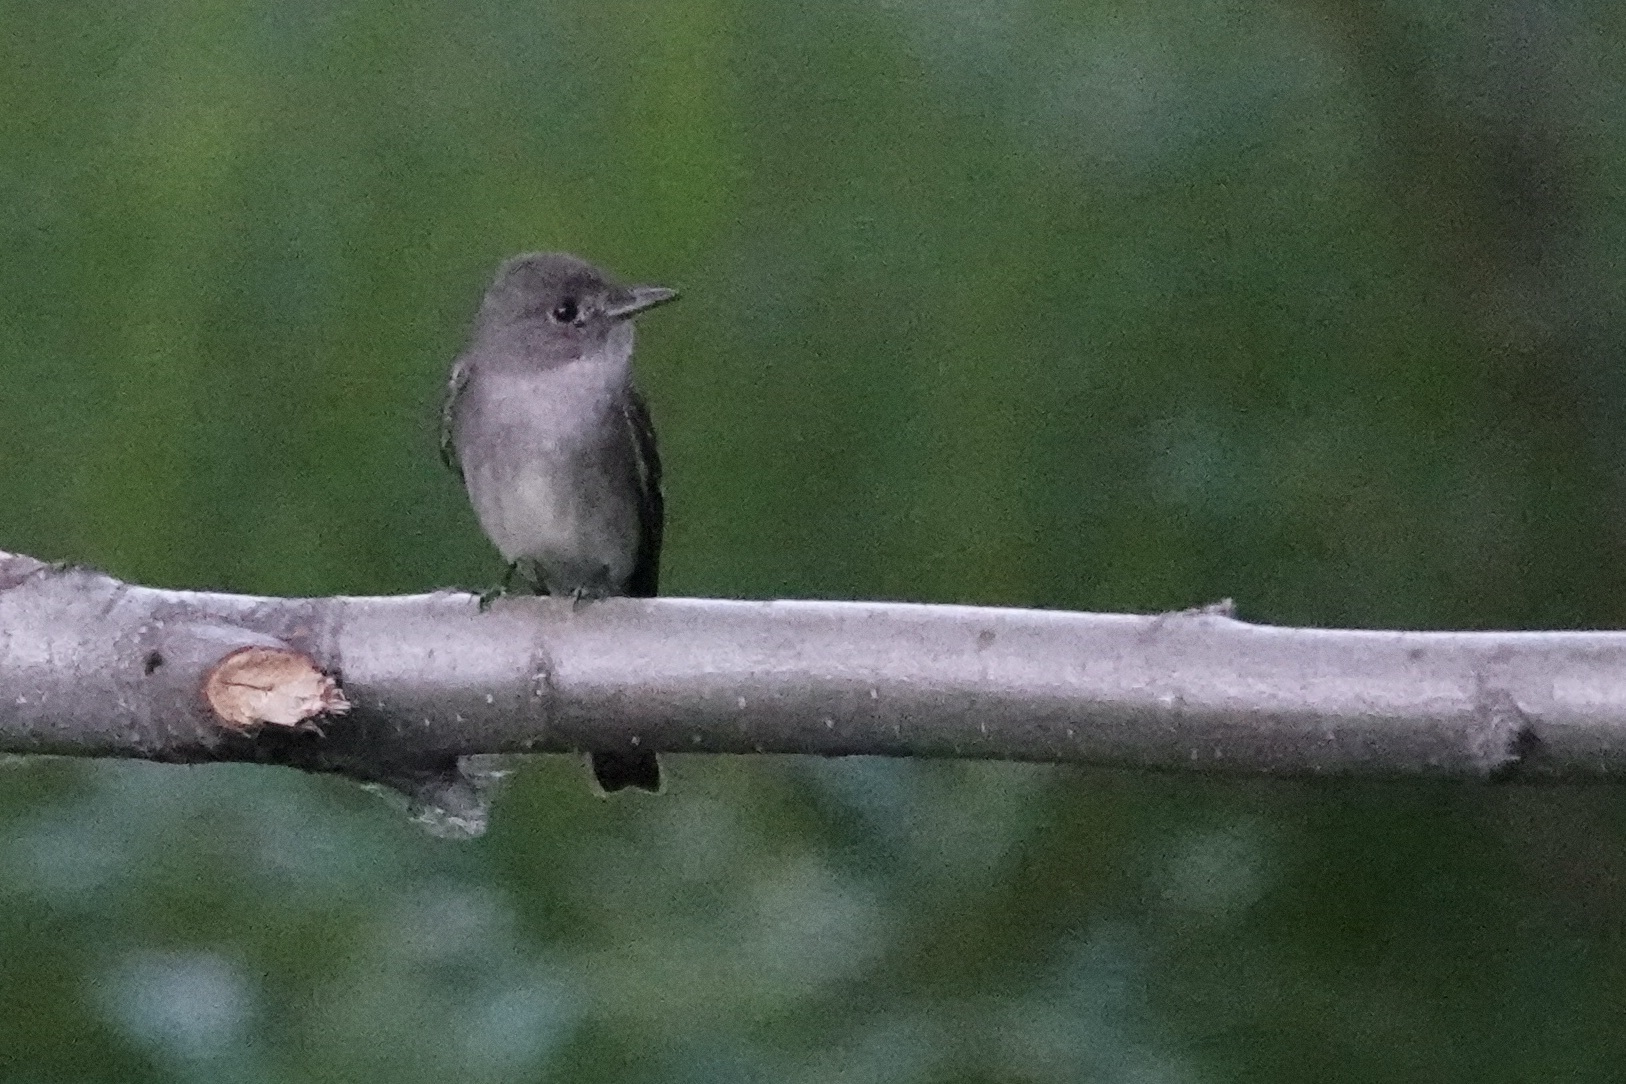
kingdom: Animalia
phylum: Chordata
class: Aves
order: Passeriformes
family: Tyrannidae
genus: Contopus
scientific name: Contopus sordidulus
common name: Western wood-pewee
